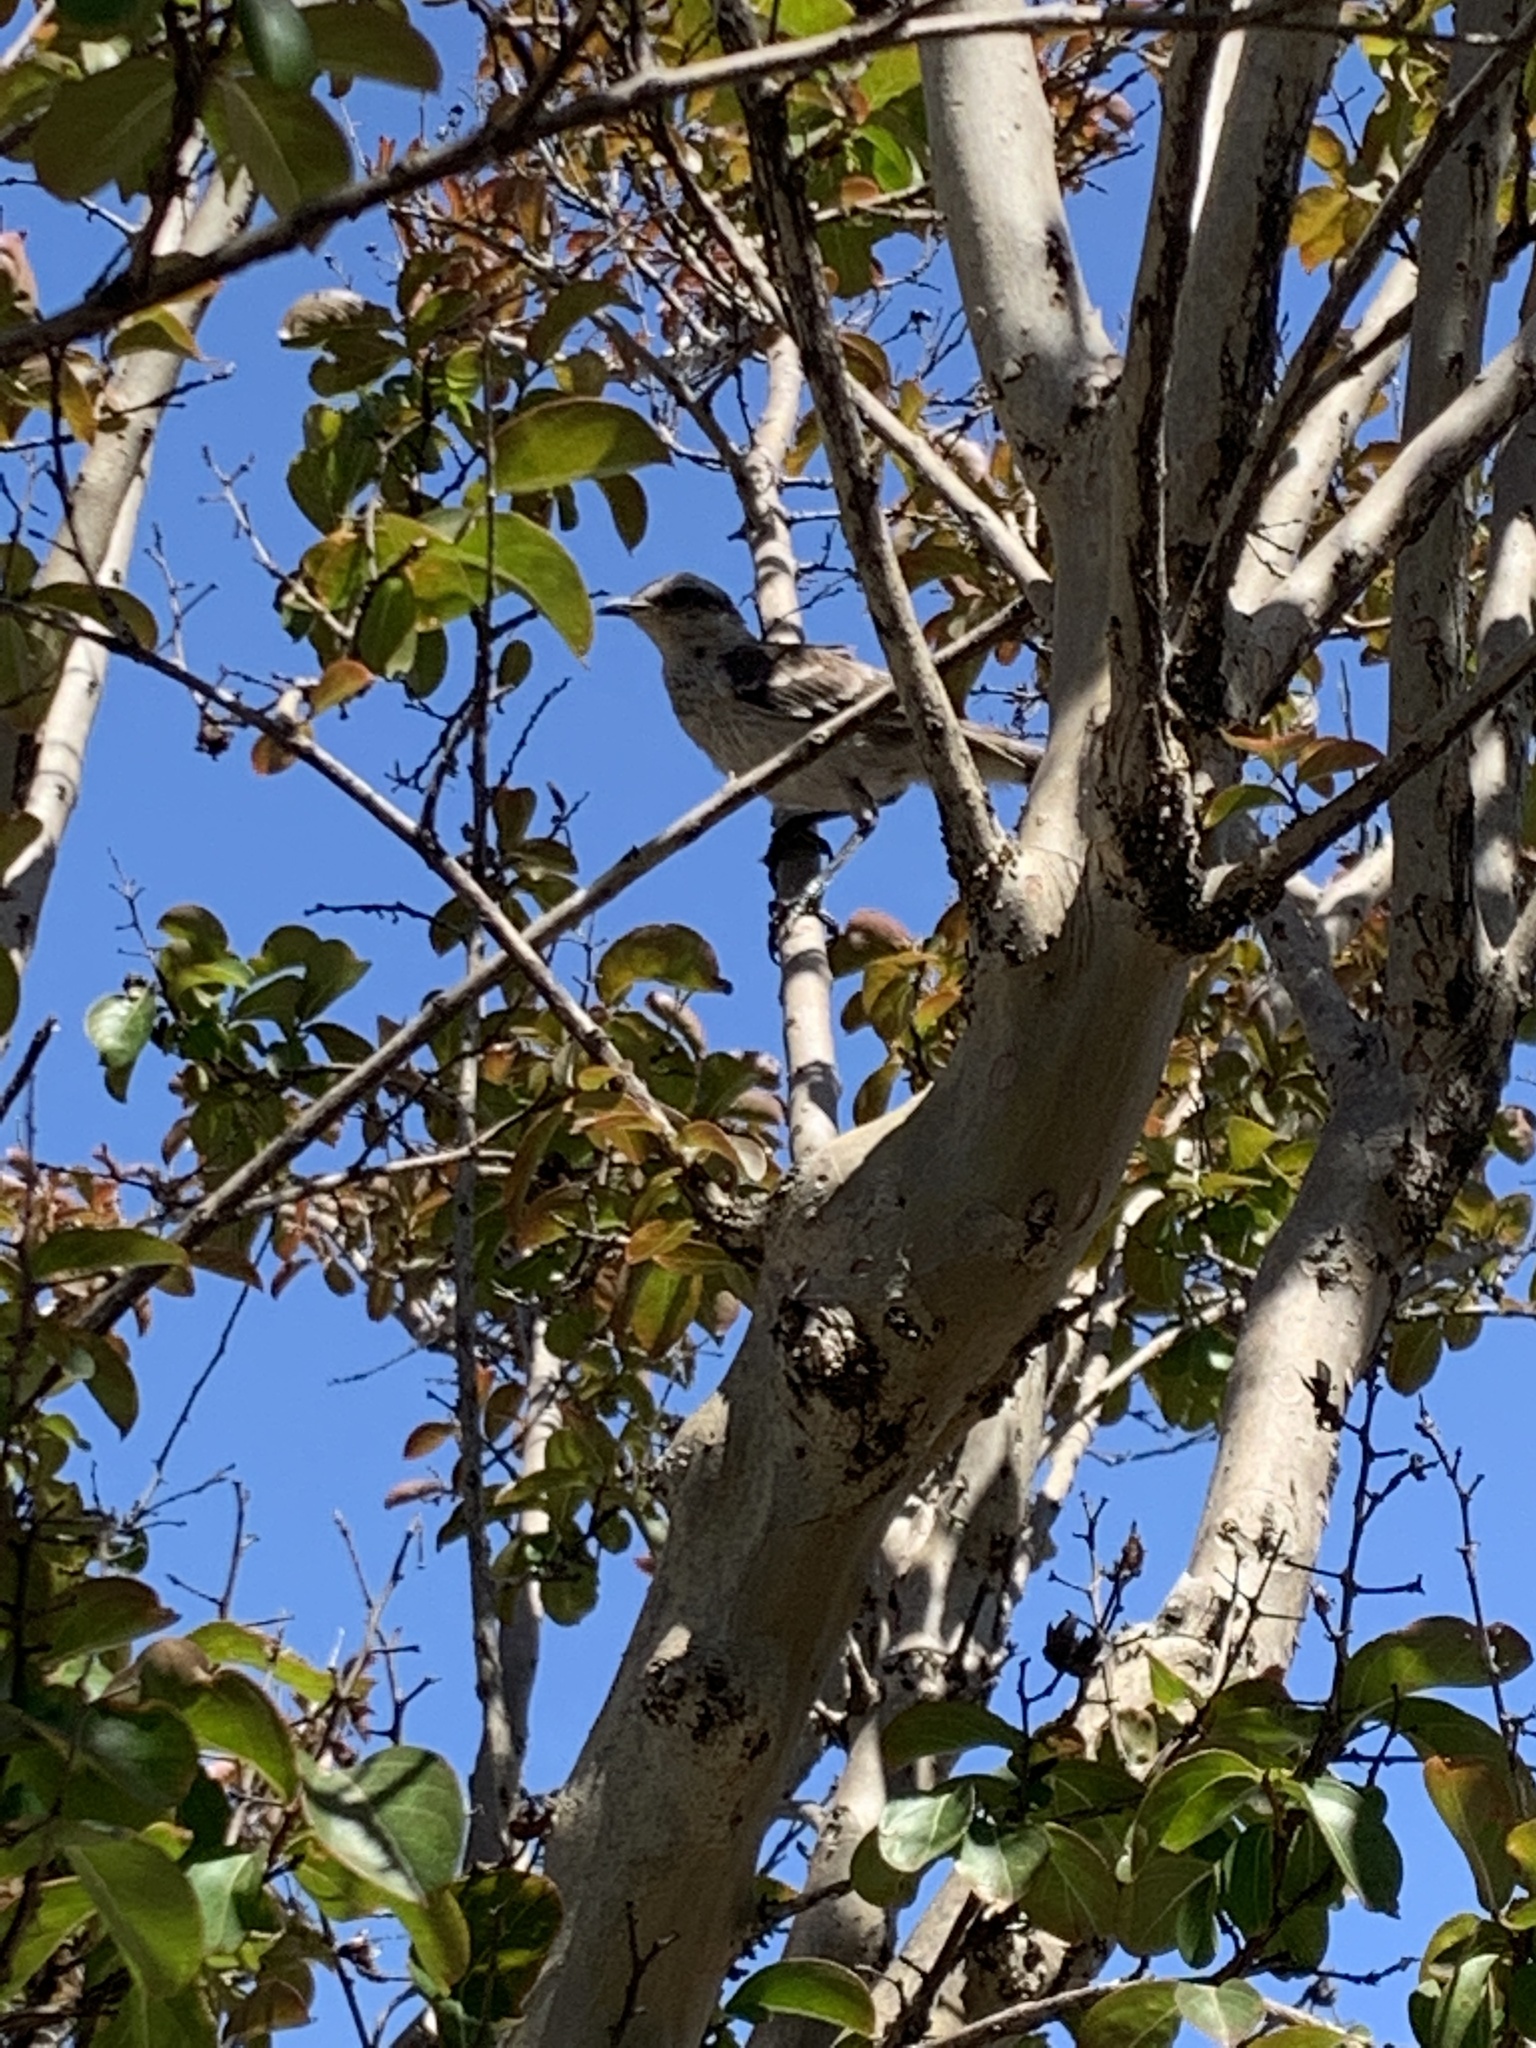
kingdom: Animalia
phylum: Chordata
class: Aves
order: Passeriformes
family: Mimidae
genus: Mimus
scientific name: Mimus saturninus
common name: Chalk-browed mockingbird
